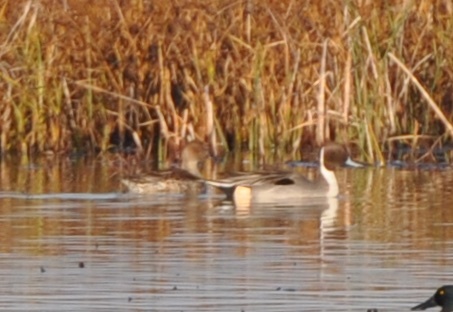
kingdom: Animalia
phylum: Chordata
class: Aves
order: Anseriformes
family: Anatidae
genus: Anas
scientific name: Anas acuta
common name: Northern pintail
